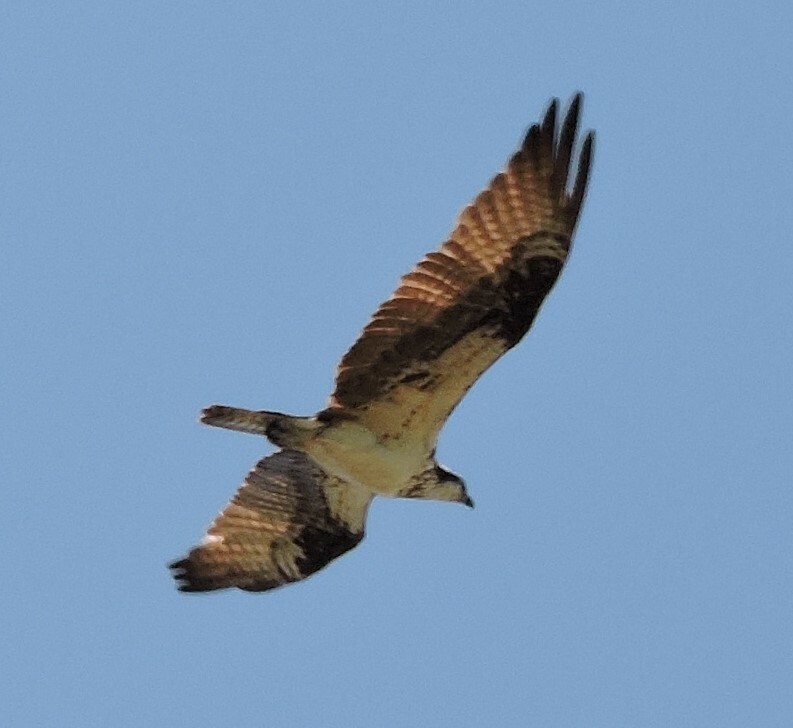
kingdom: Animalia
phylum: Chordata
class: Aves
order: Accipitriformes
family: Pandionidae
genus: Pandion
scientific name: Pandion haliaetus
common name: Osprey
